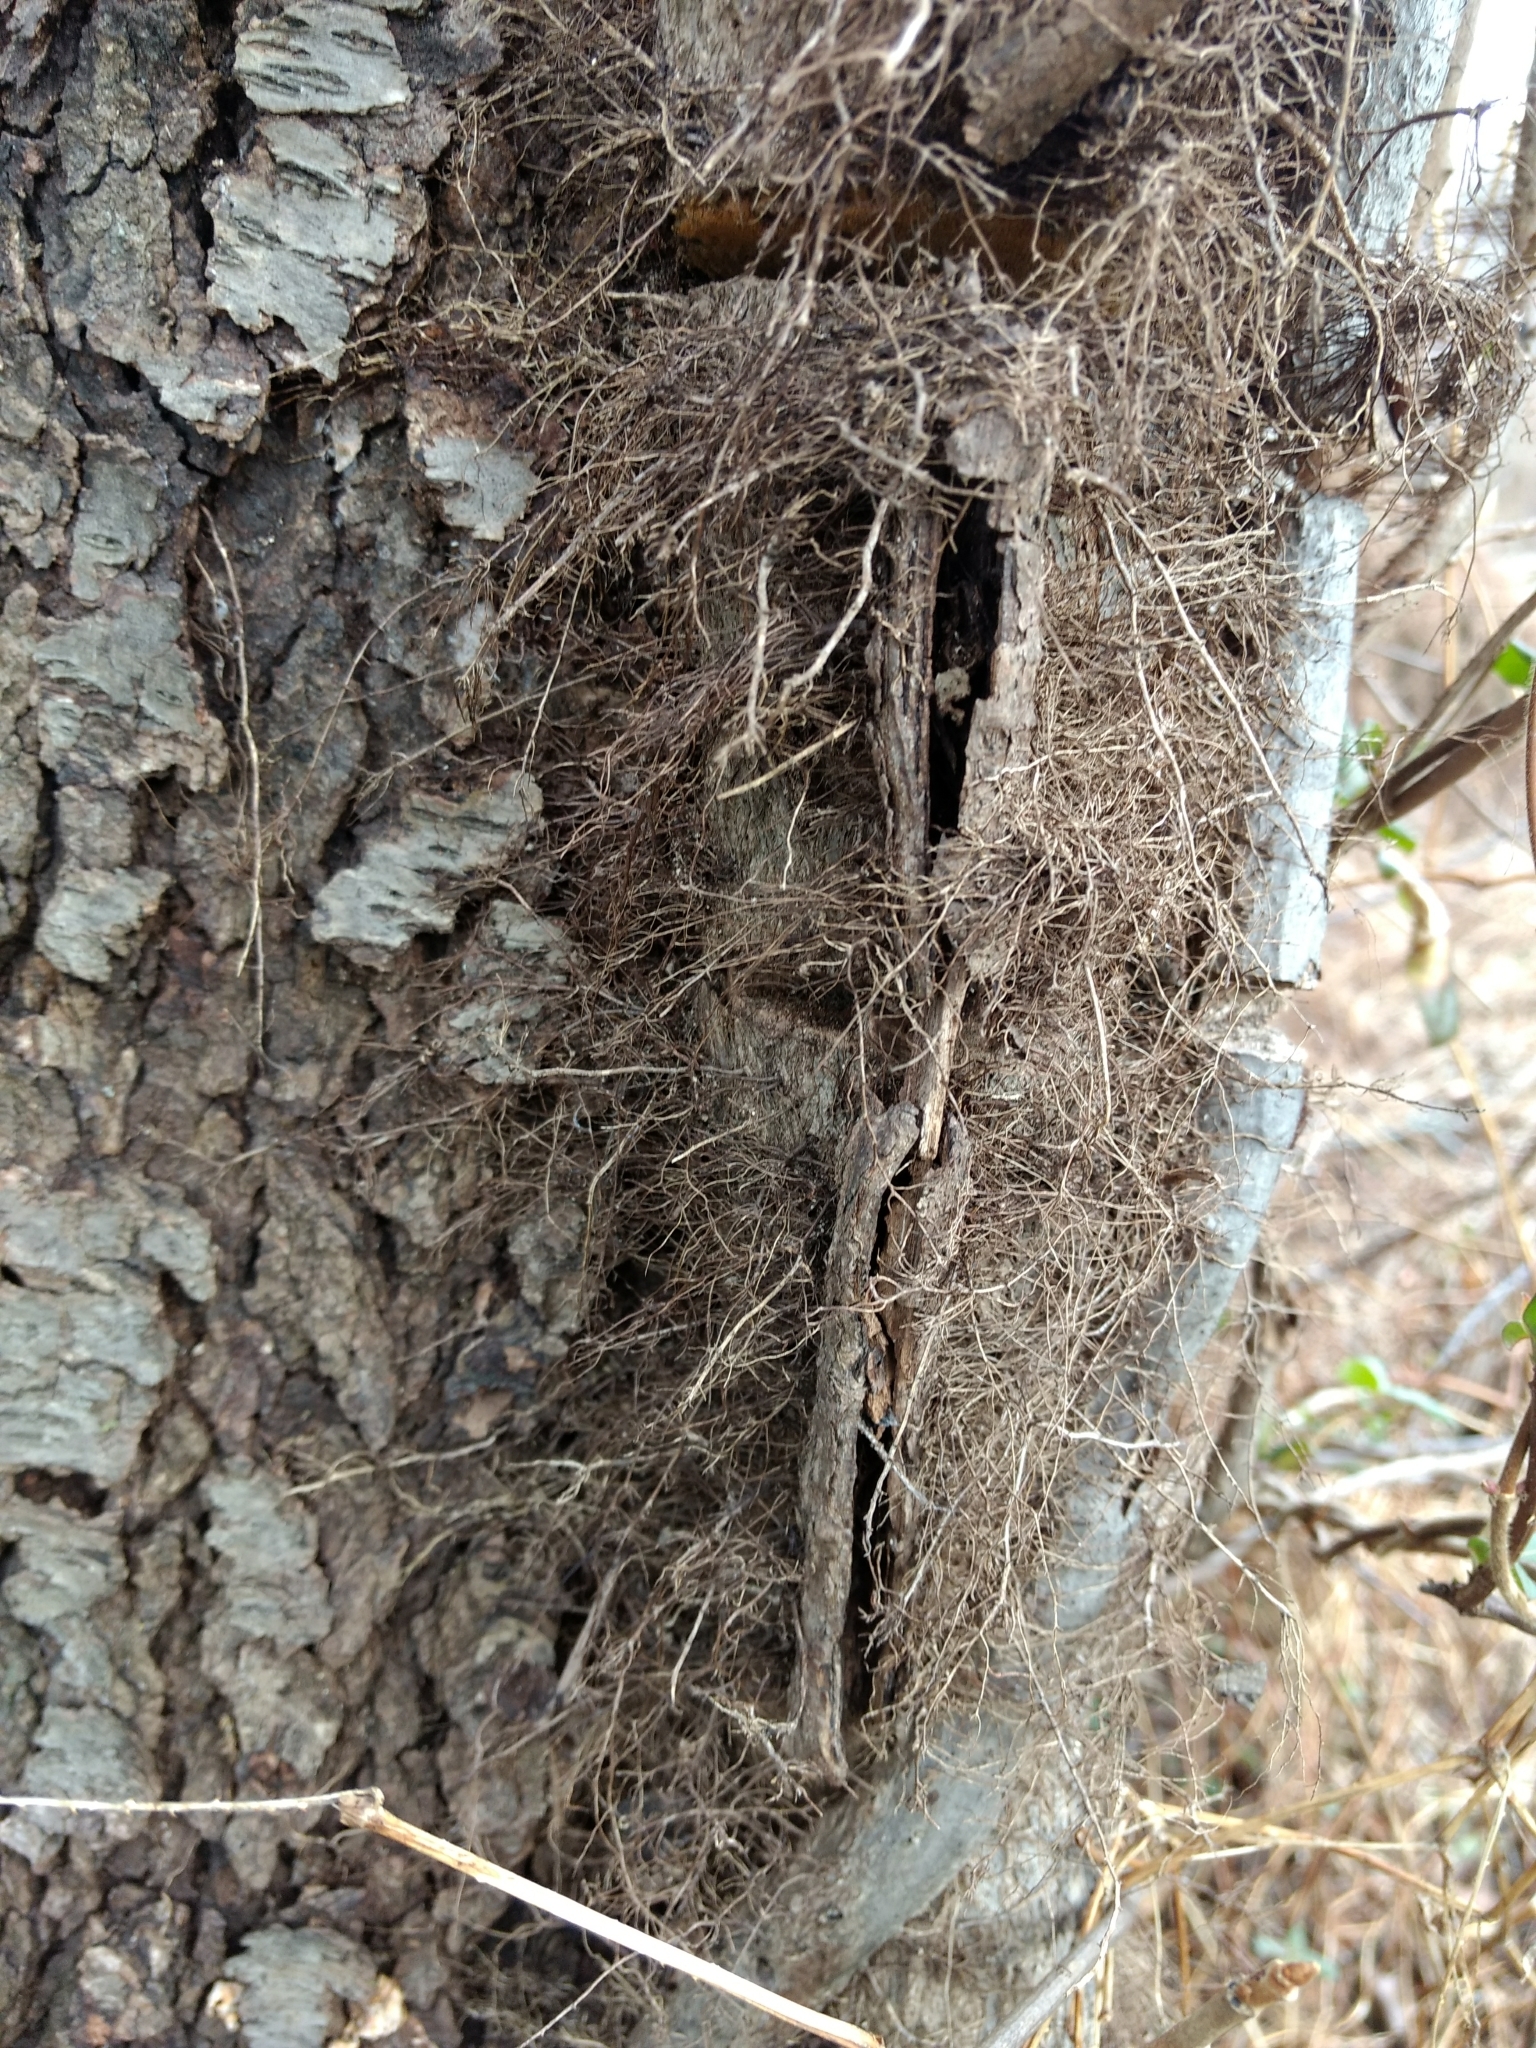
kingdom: Plantae
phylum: Tracheophyta
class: Magnoliopsida
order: Sapindales
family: Anacardiaceae
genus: Toxicodendron
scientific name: Toxicodendron radicans
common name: Poison ivy
